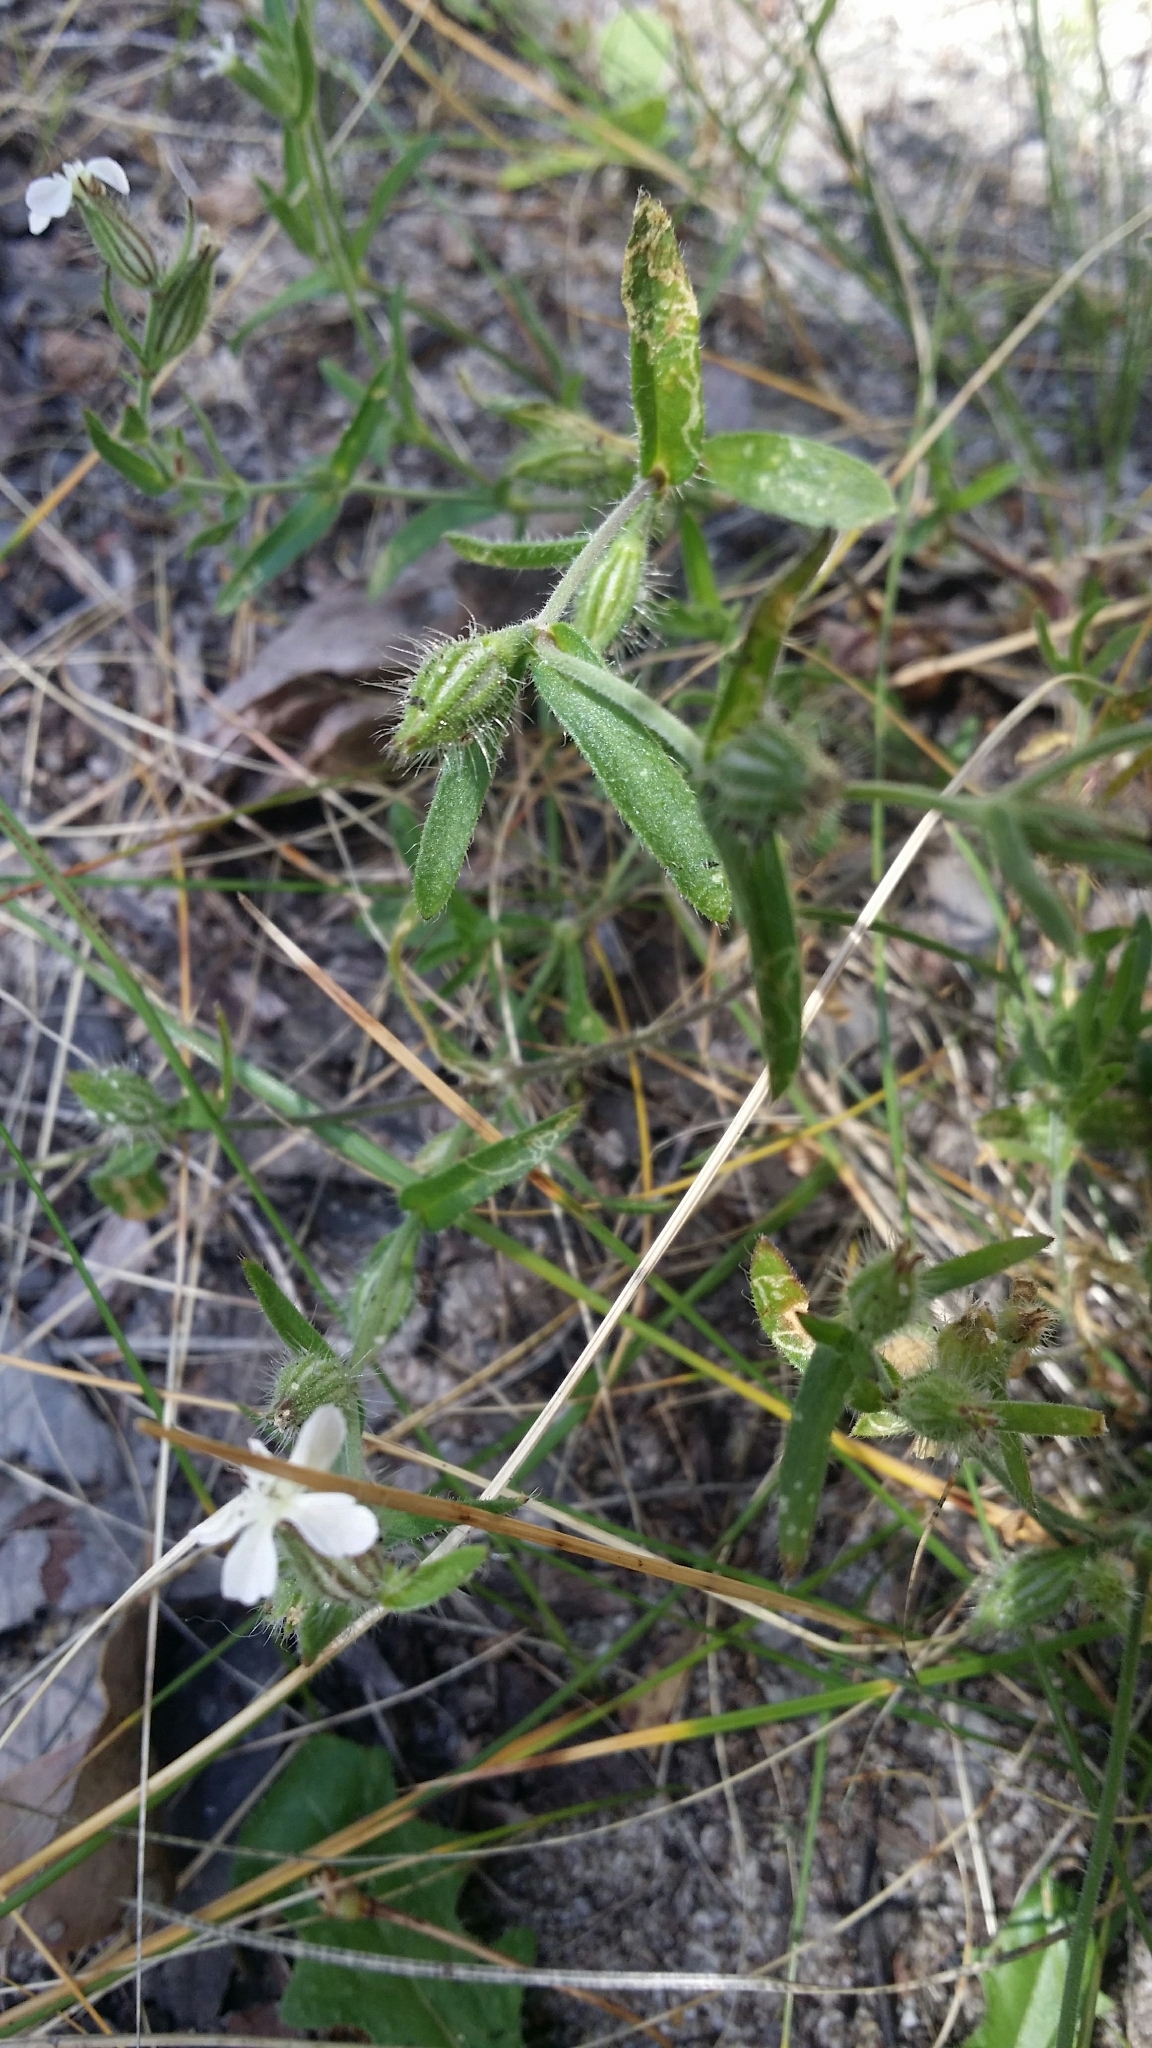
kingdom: Plantae
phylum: Tracheophyta
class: Magnoliopsida
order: Caryophyllales
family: Caryophyllaceae
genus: Silene
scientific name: Silene gallica
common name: Small-flowered catchfly
